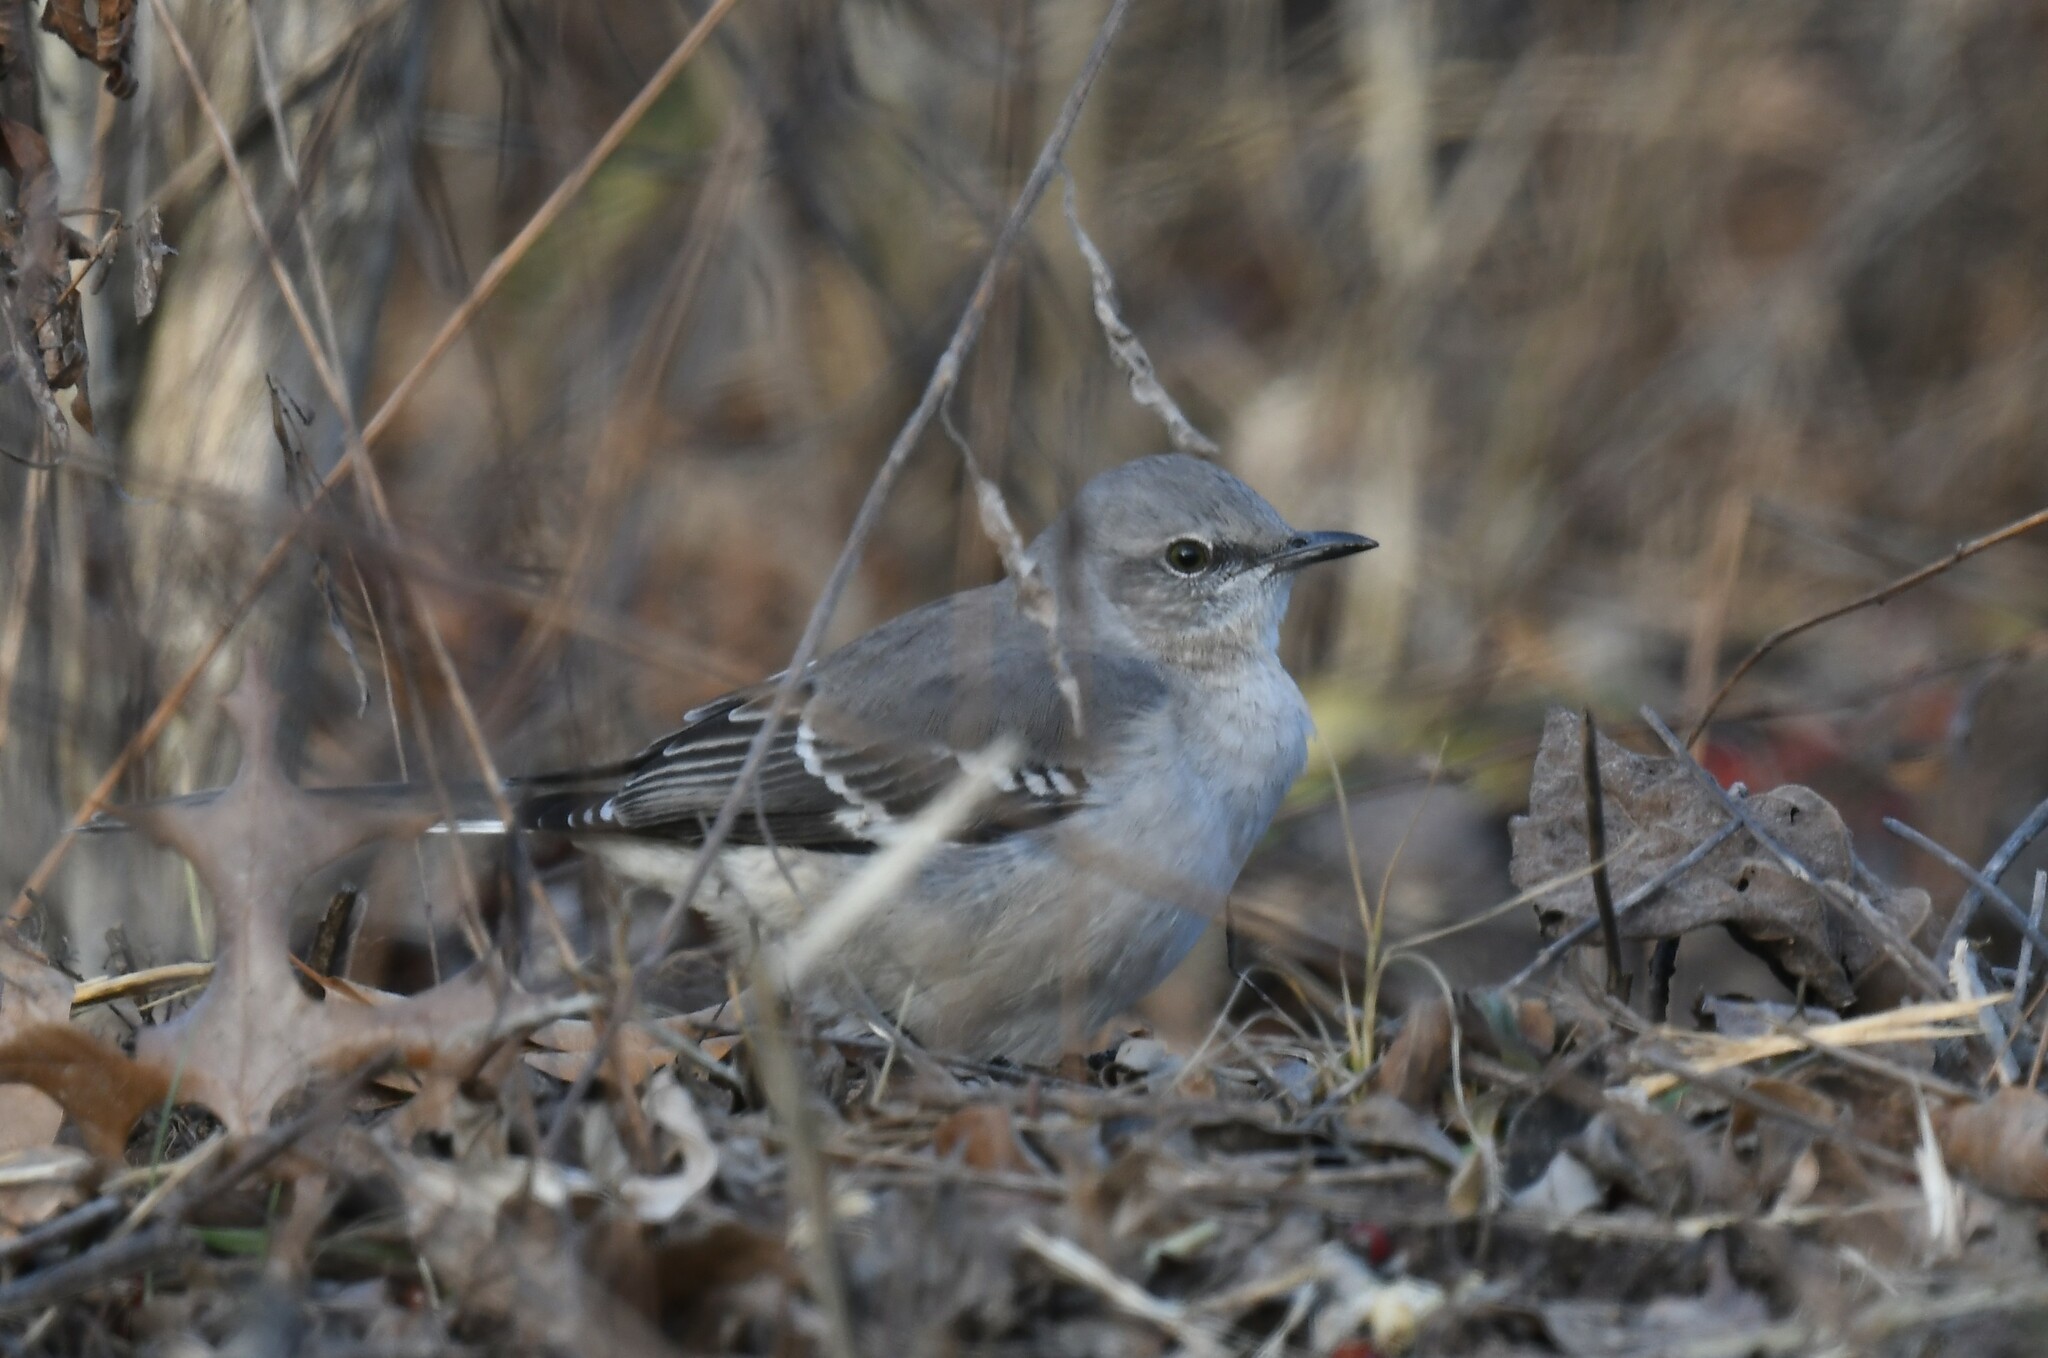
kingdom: Animalia
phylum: Chordata
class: Aves
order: Passeriformes
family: Mimidae
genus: Mimus
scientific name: Mimus polyglottos
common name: Northern mockingbird
